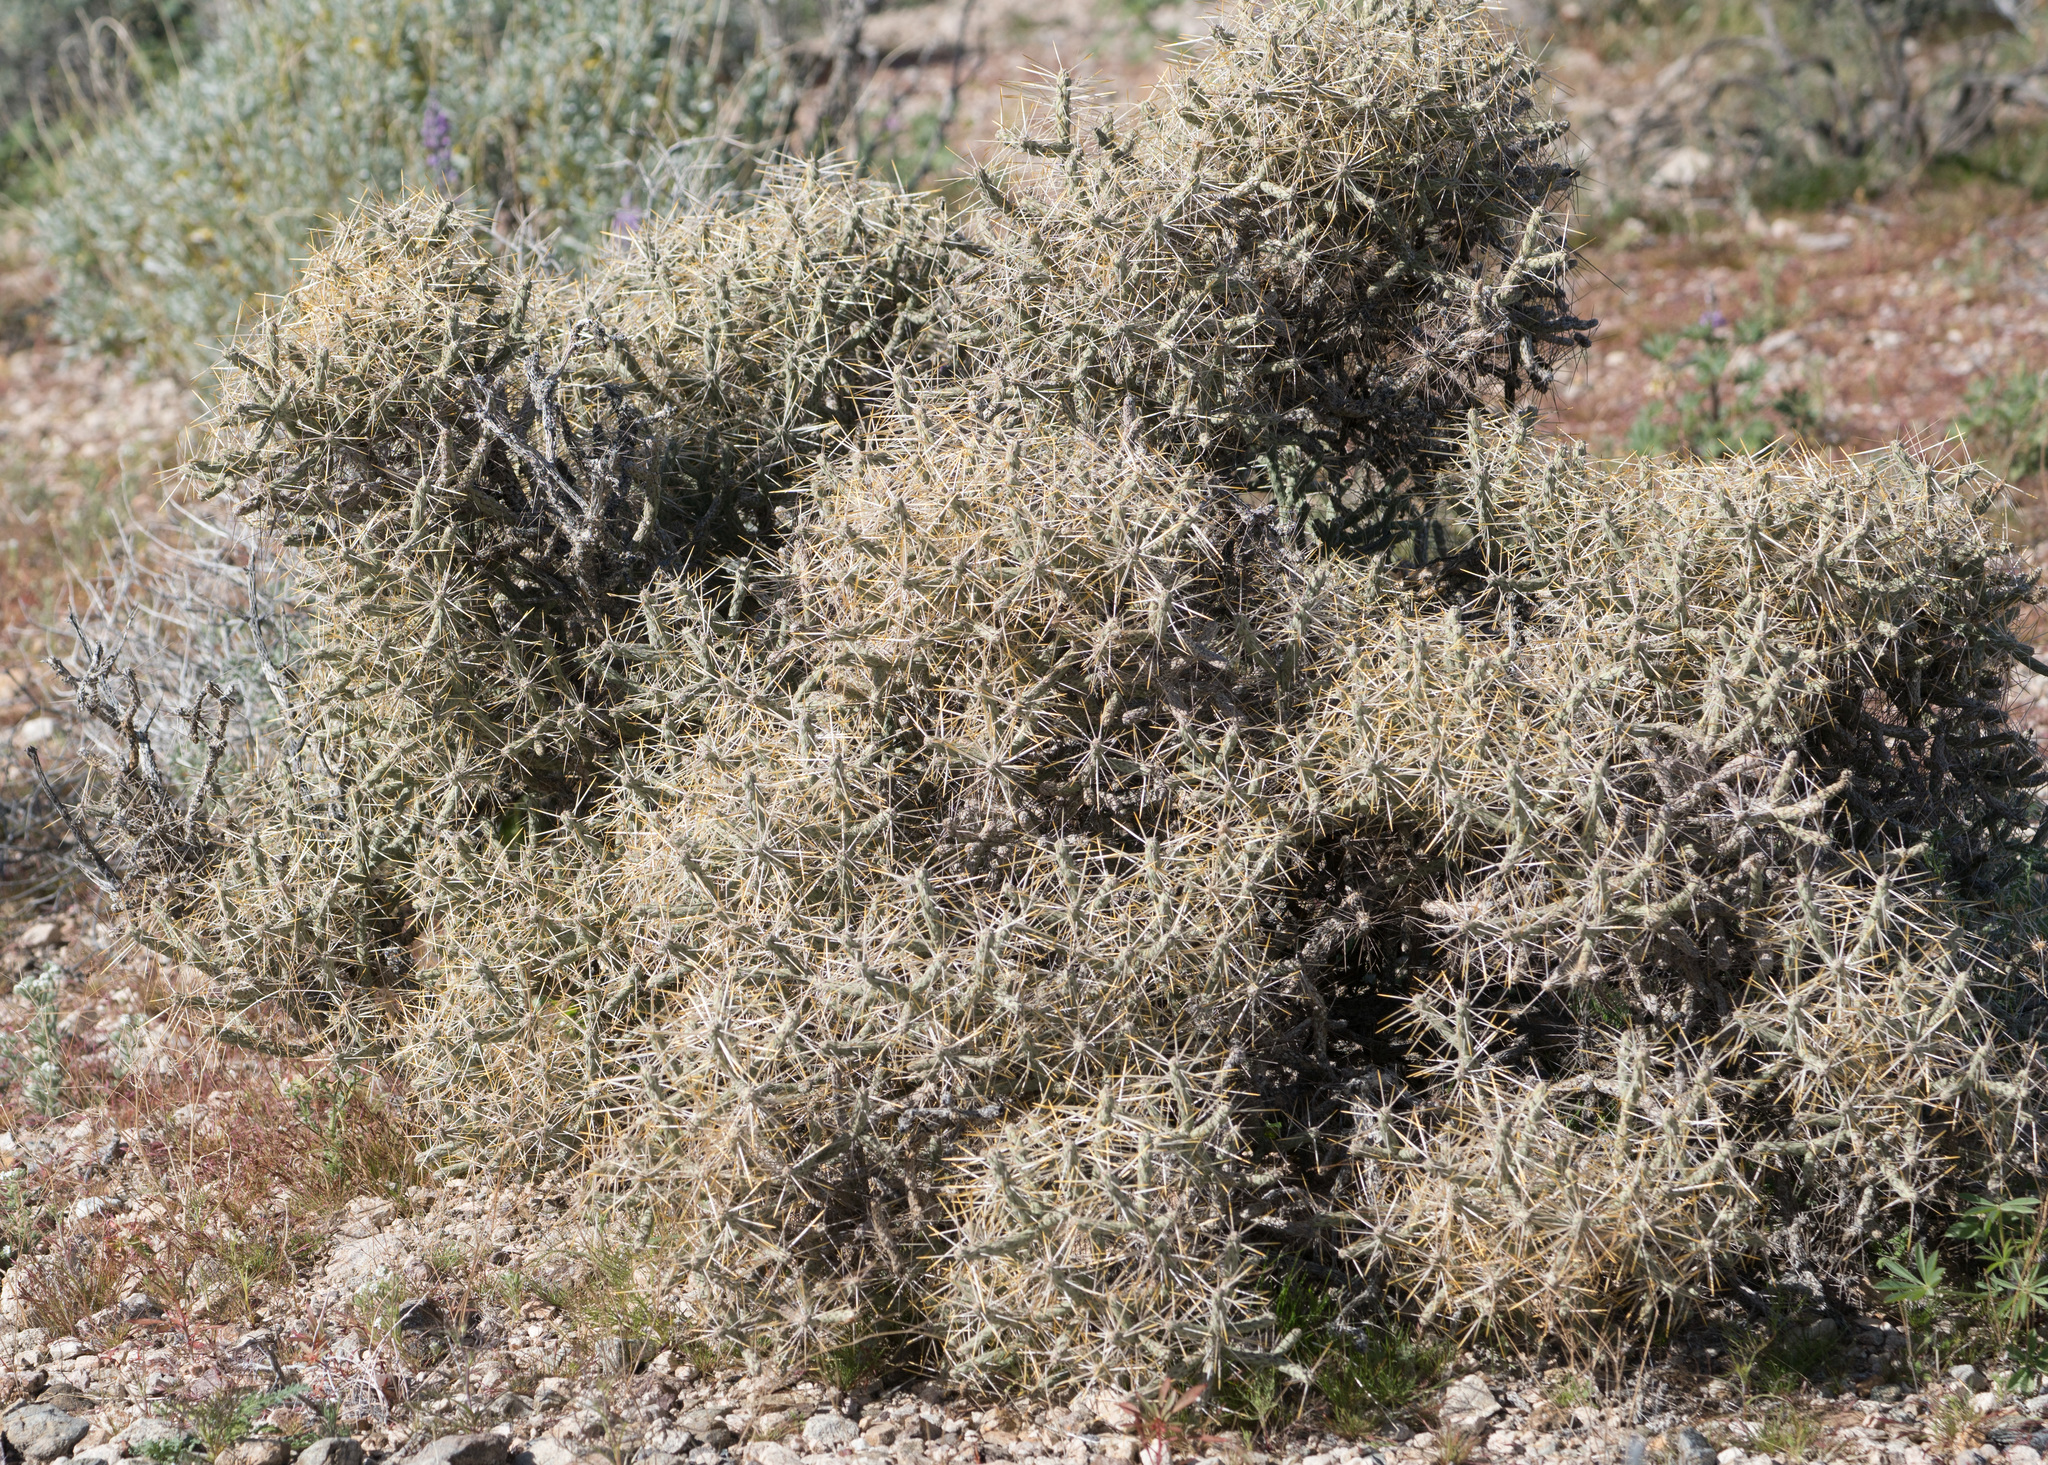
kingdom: Plantae
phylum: Tracheophyta
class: Magnoliopsida
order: Caryophyllales
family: Cactaceae
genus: Cylindropuntia
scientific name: Cylindropuntia ramosissima
